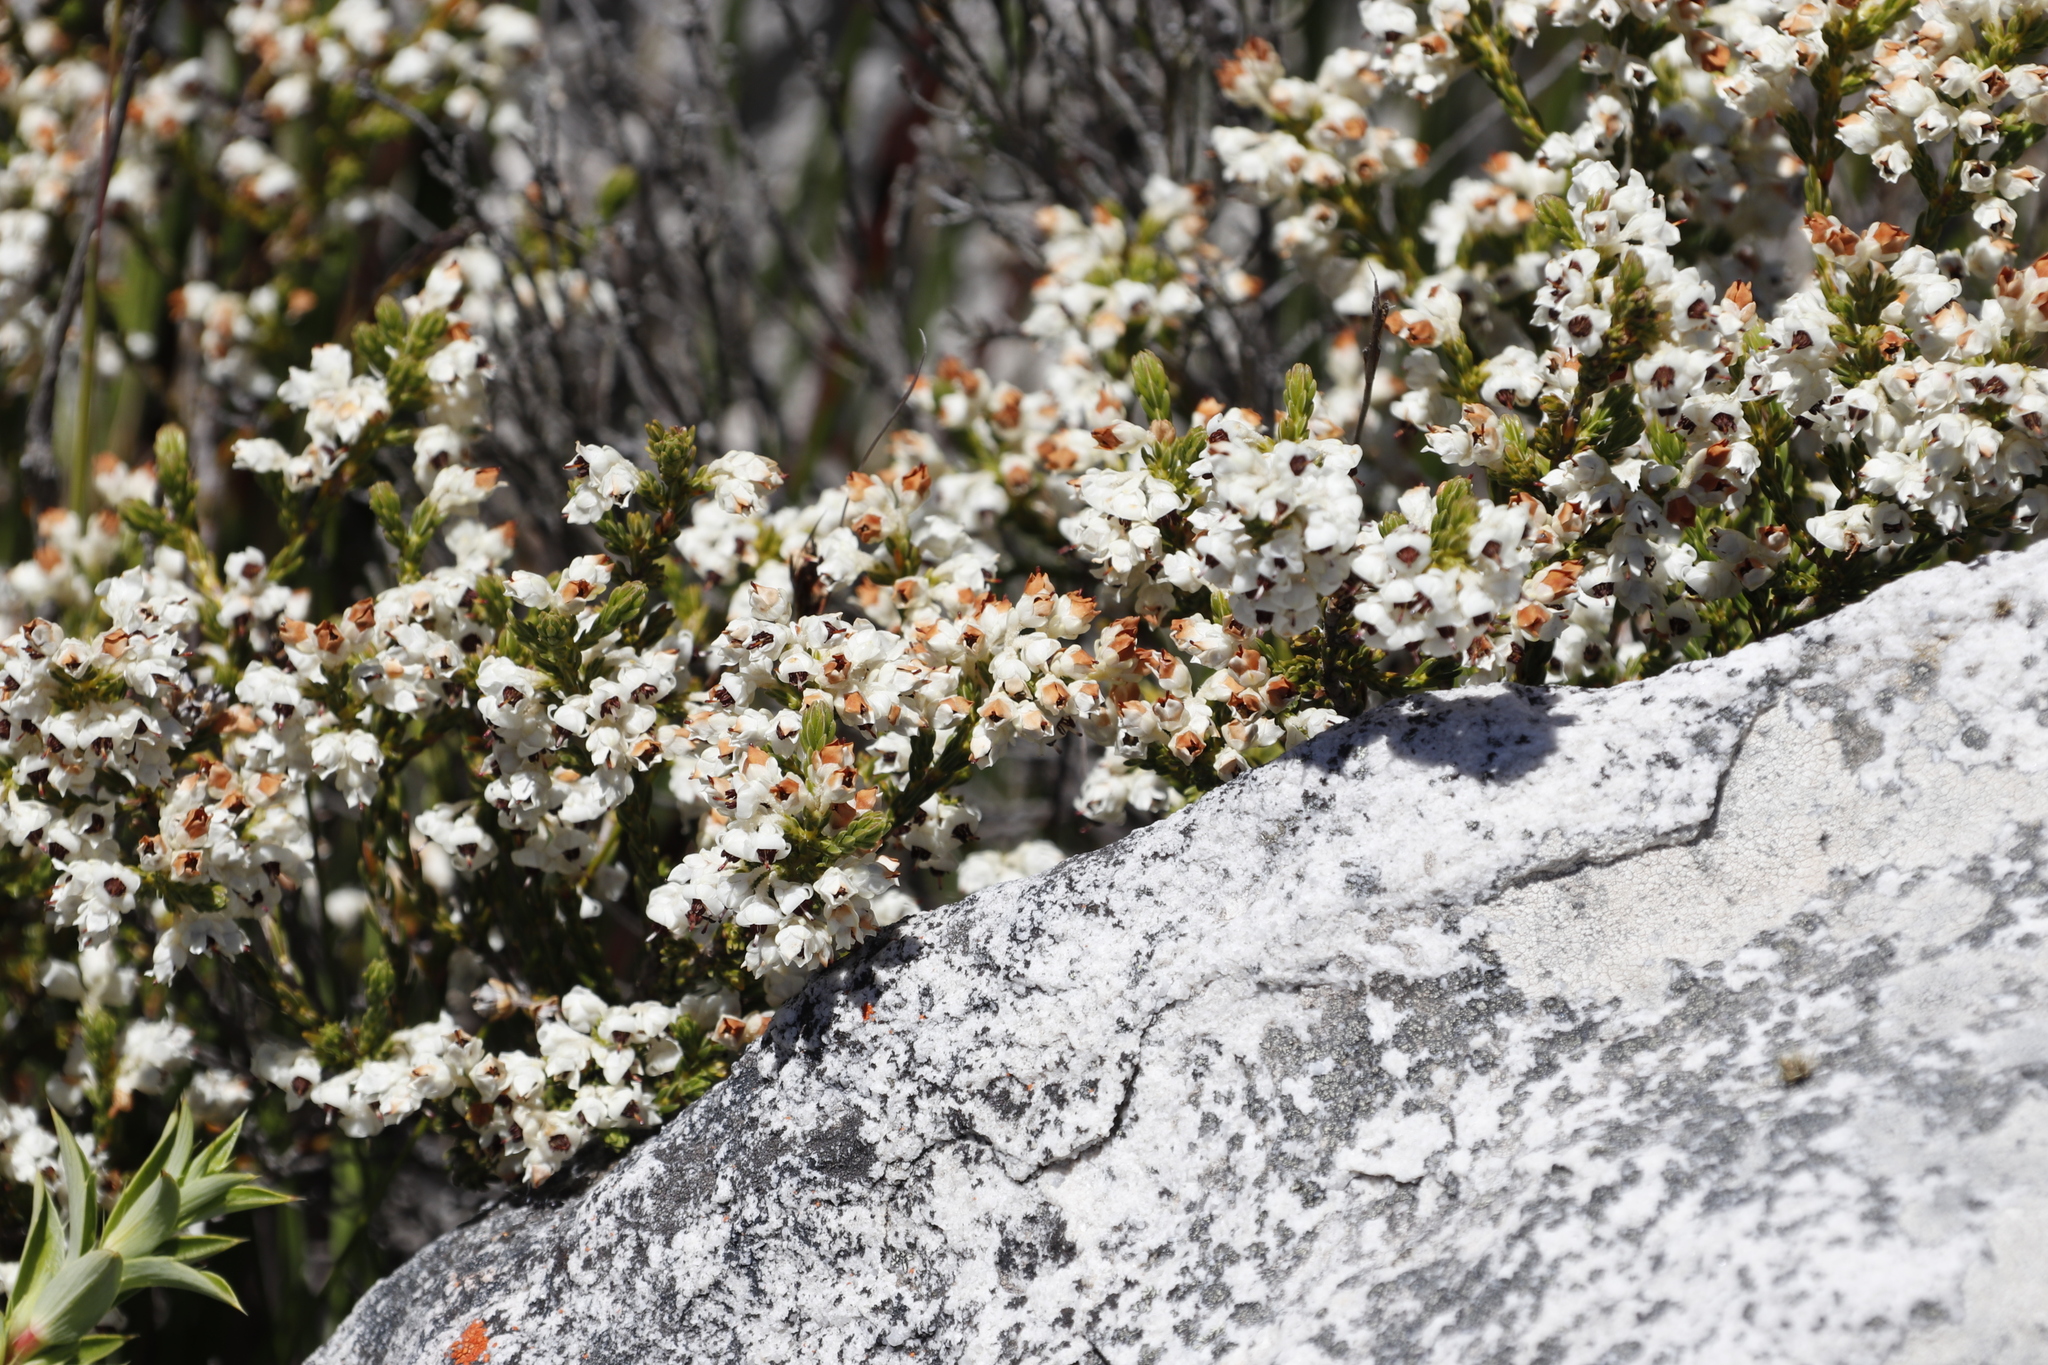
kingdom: Plantae
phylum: Tracheophyta
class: Magnoliopsida
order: Ericales
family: Ericaceae
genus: Erica
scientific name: Erica calycina
